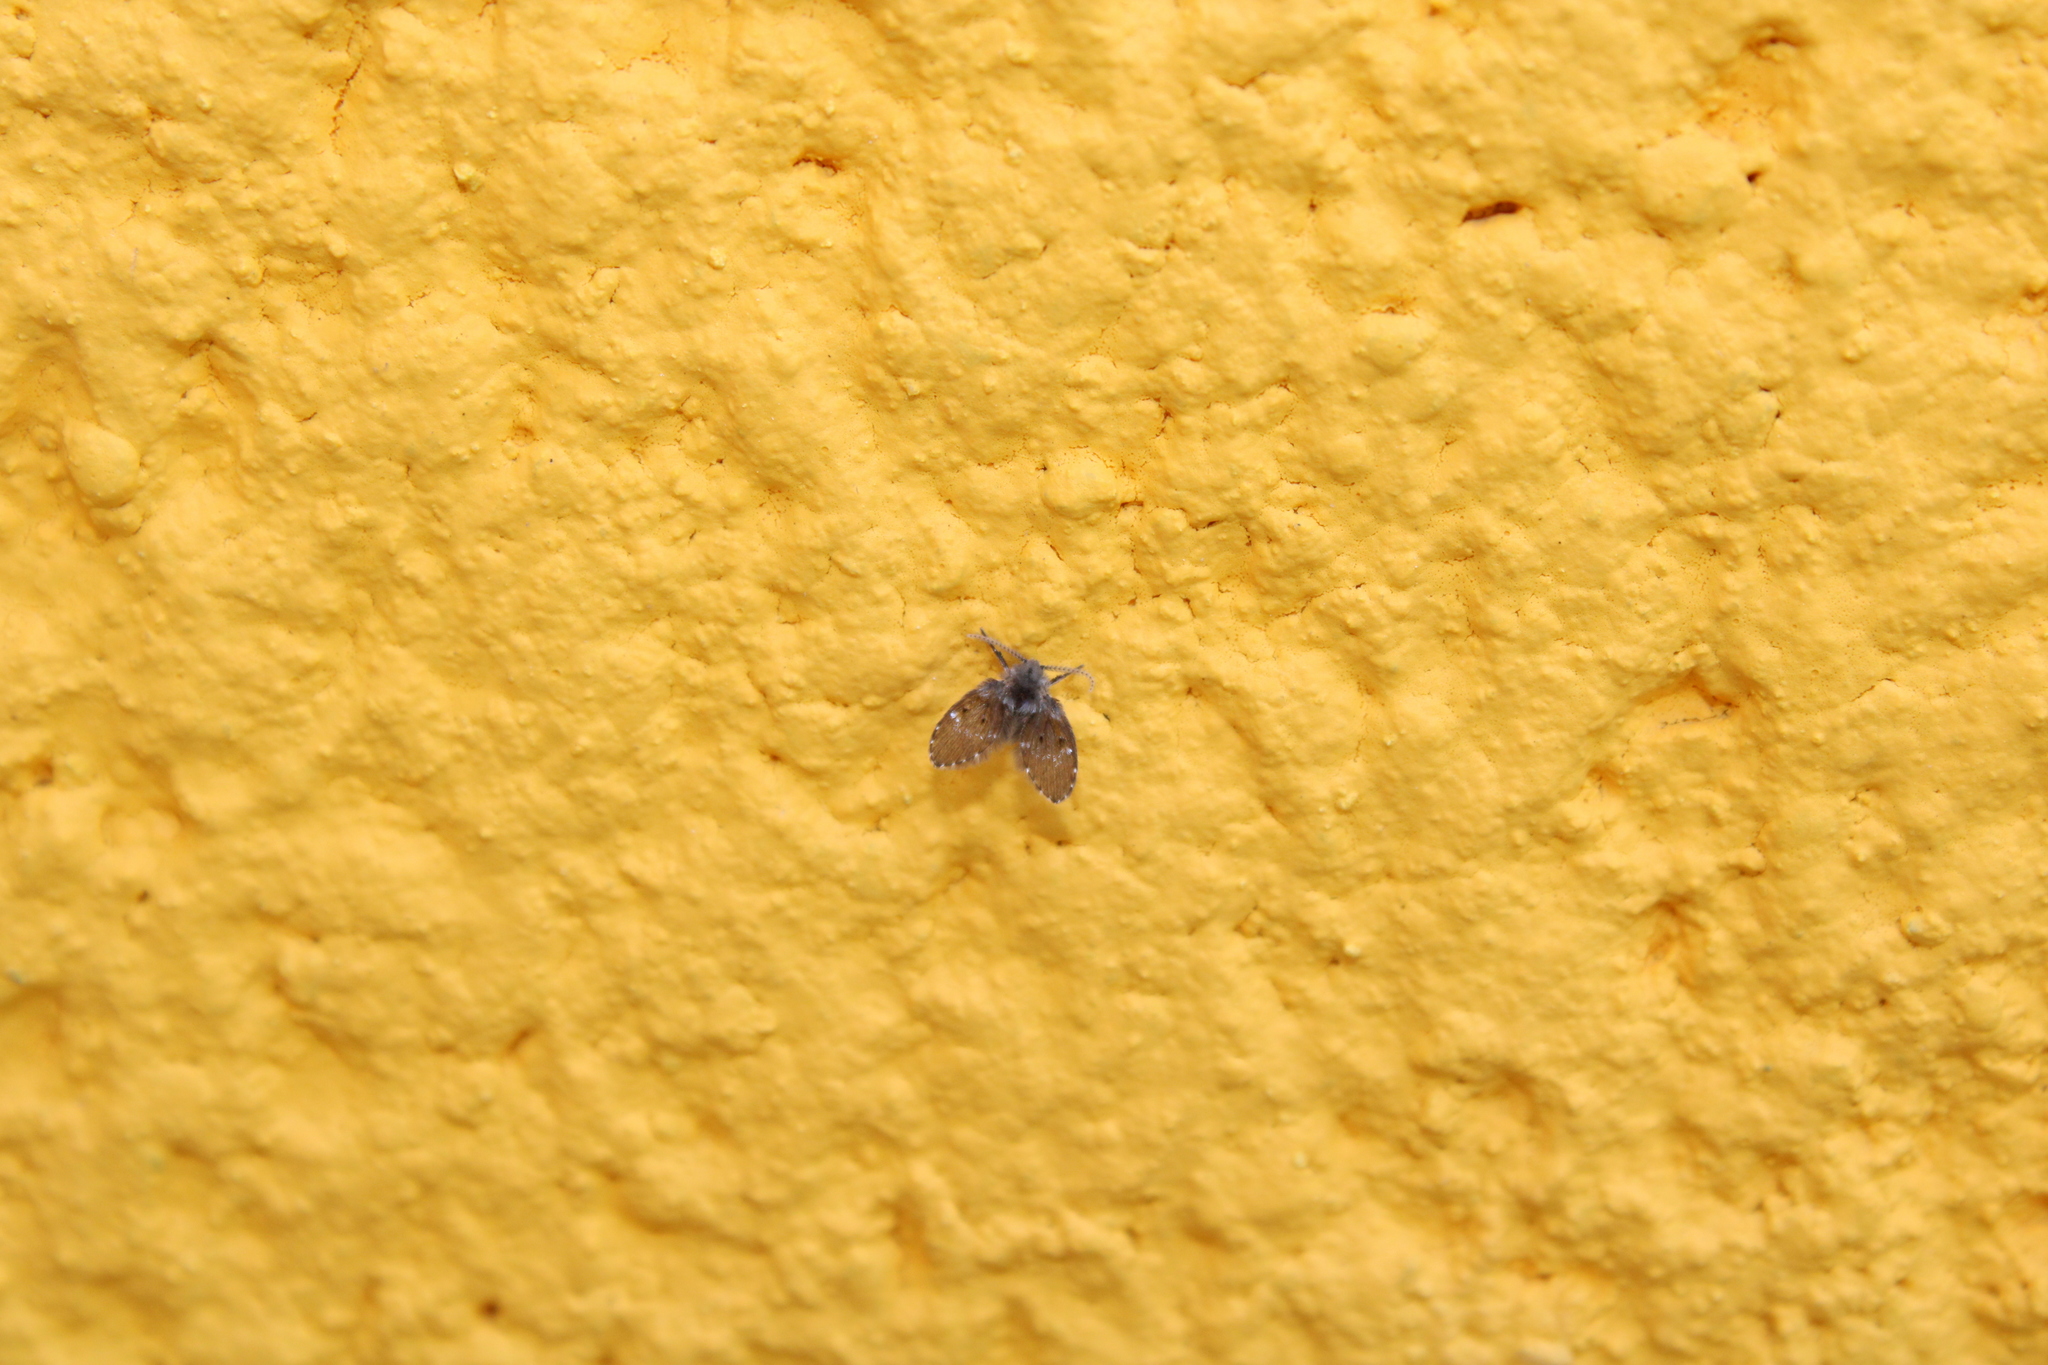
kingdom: Animalia
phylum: Arthropoda
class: Insecta
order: Diptera
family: Psychodidae
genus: Clogmia
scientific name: Clogmia albipunctatus
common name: White-spotted moth fly
